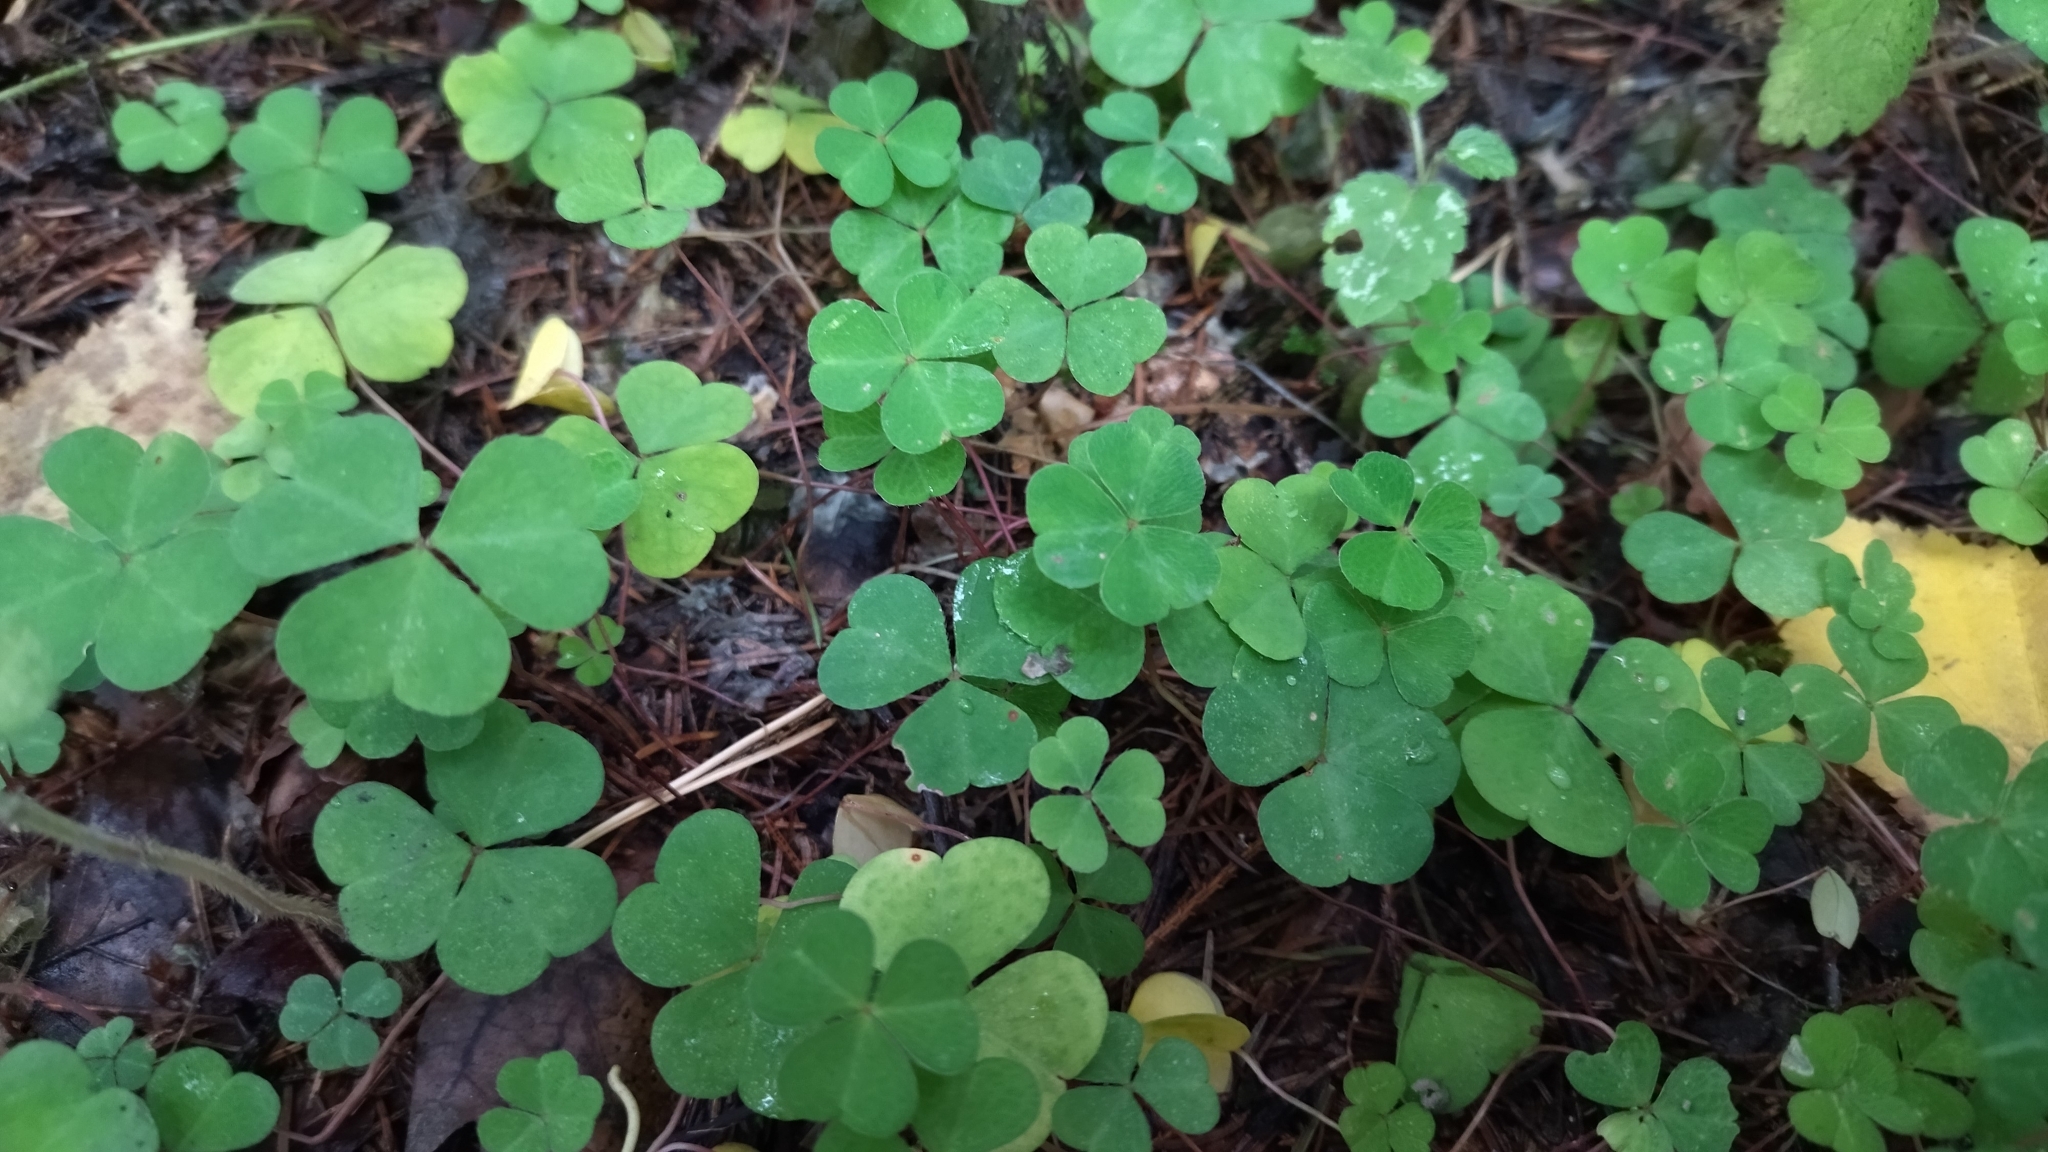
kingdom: Plantae
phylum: Tracheophyta
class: Magnoliopsida
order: Oxalidales
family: Oxalidaceae
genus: Oxalis
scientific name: Oxalis acetosella
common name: Wood-sorrel
